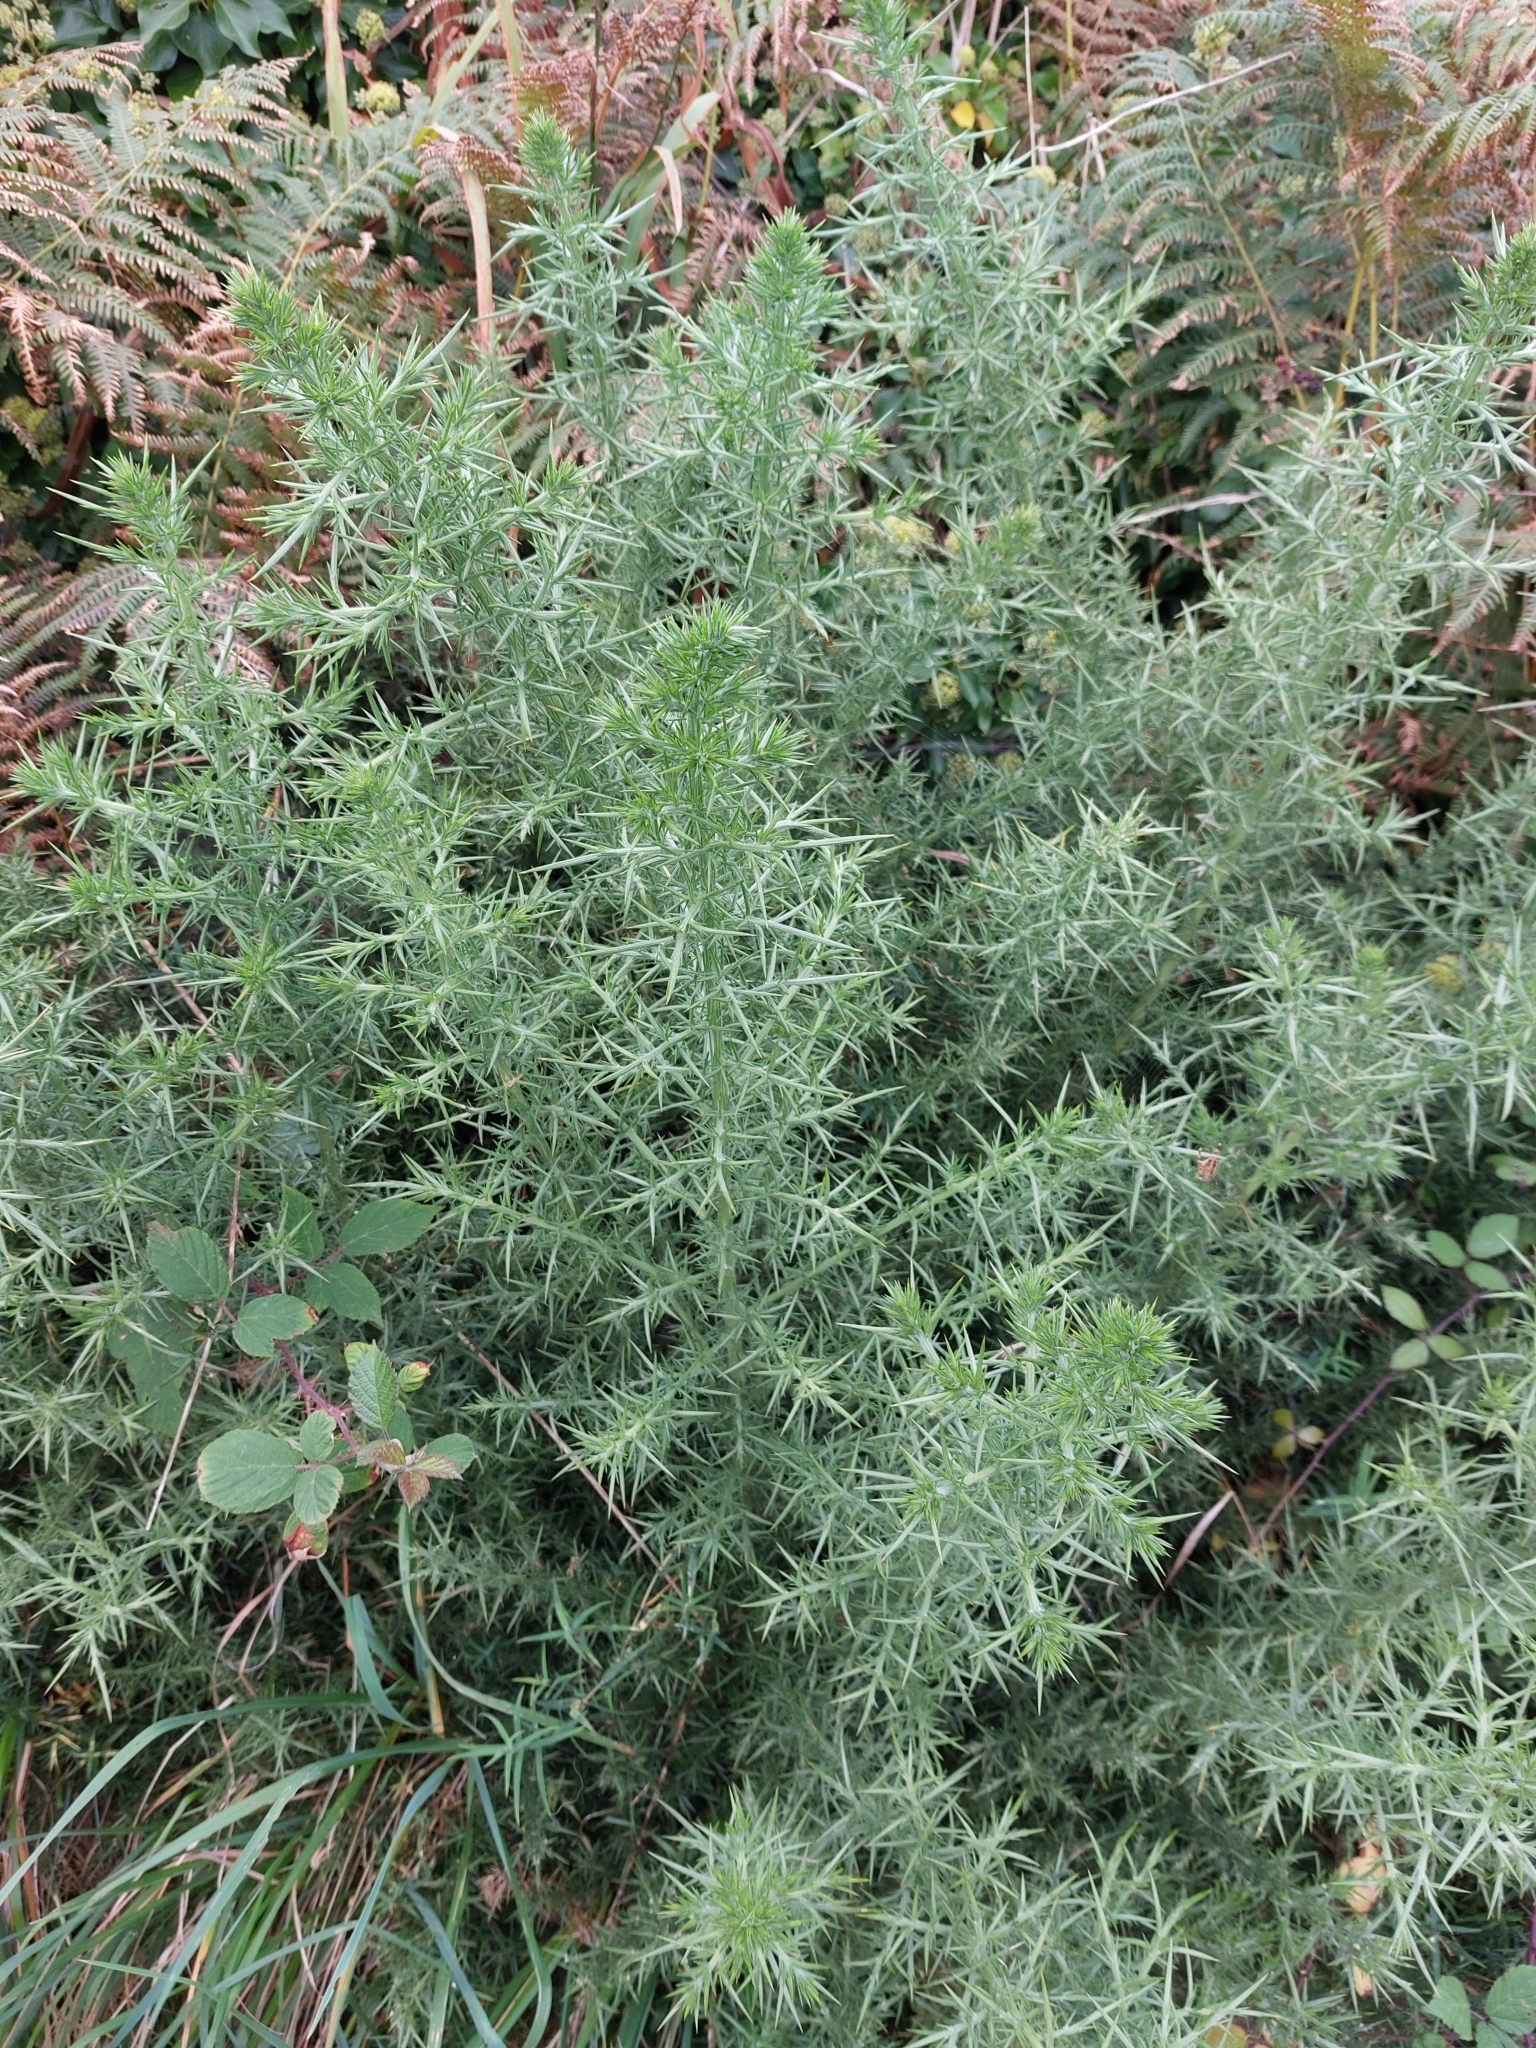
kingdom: Plantae
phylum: Tracheophyta
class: Magnoliopsida
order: Fabales
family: Fabaceae
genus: Ulex
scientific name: Ulex europaeus
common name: Common gorse
